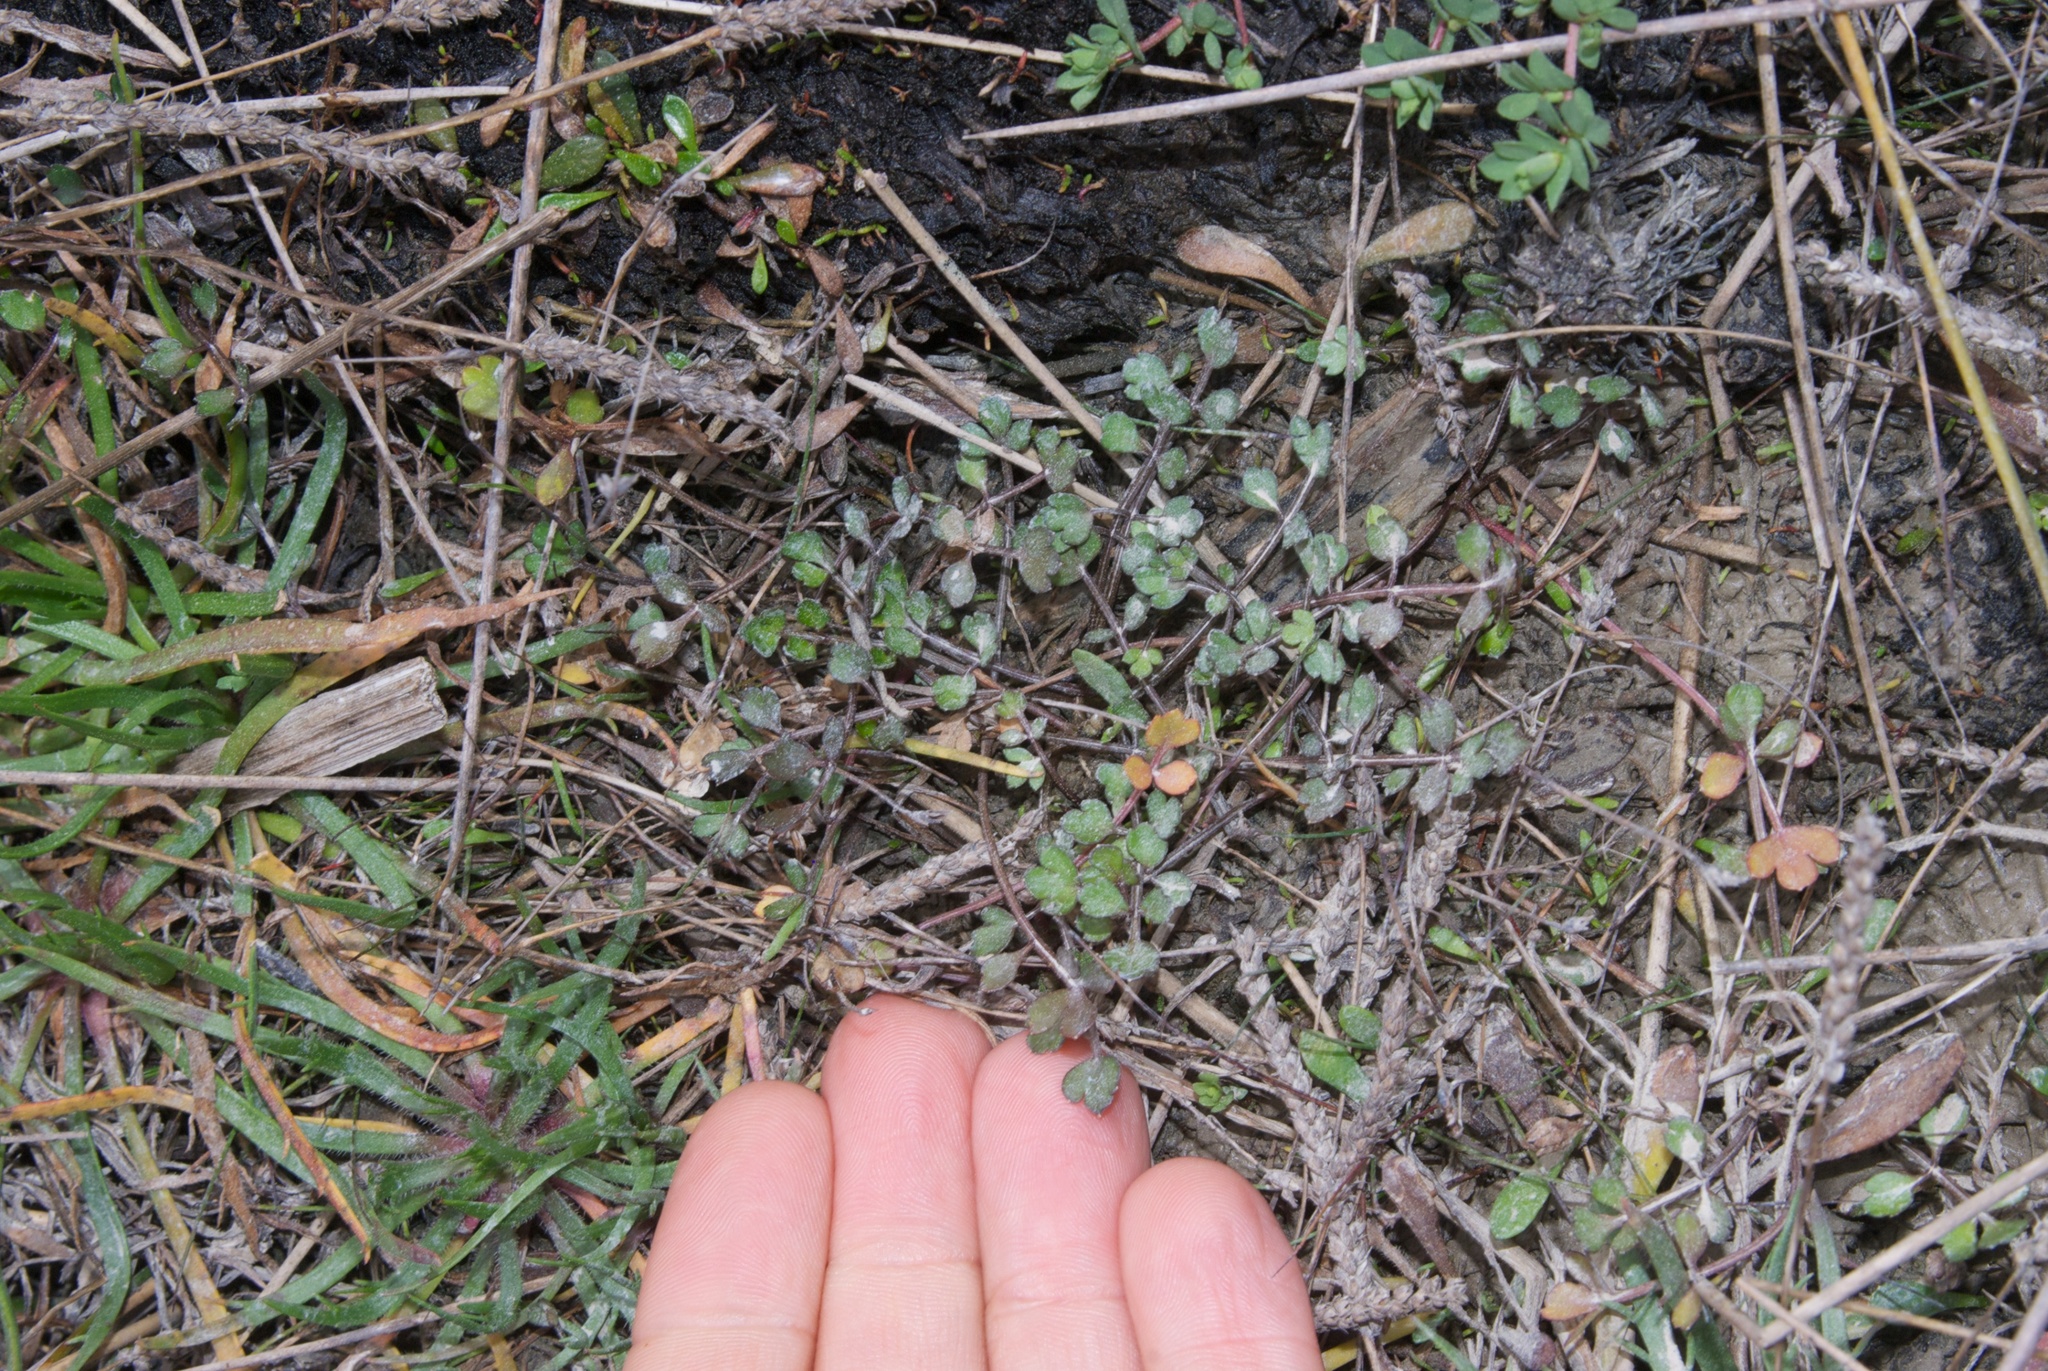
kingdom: Plantae
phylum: Tracheophyta
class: Magnoliopsida
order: Apiales
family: Apiaceae
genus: Apium
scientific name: Apium prostratum
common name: Prostrate marshwort
